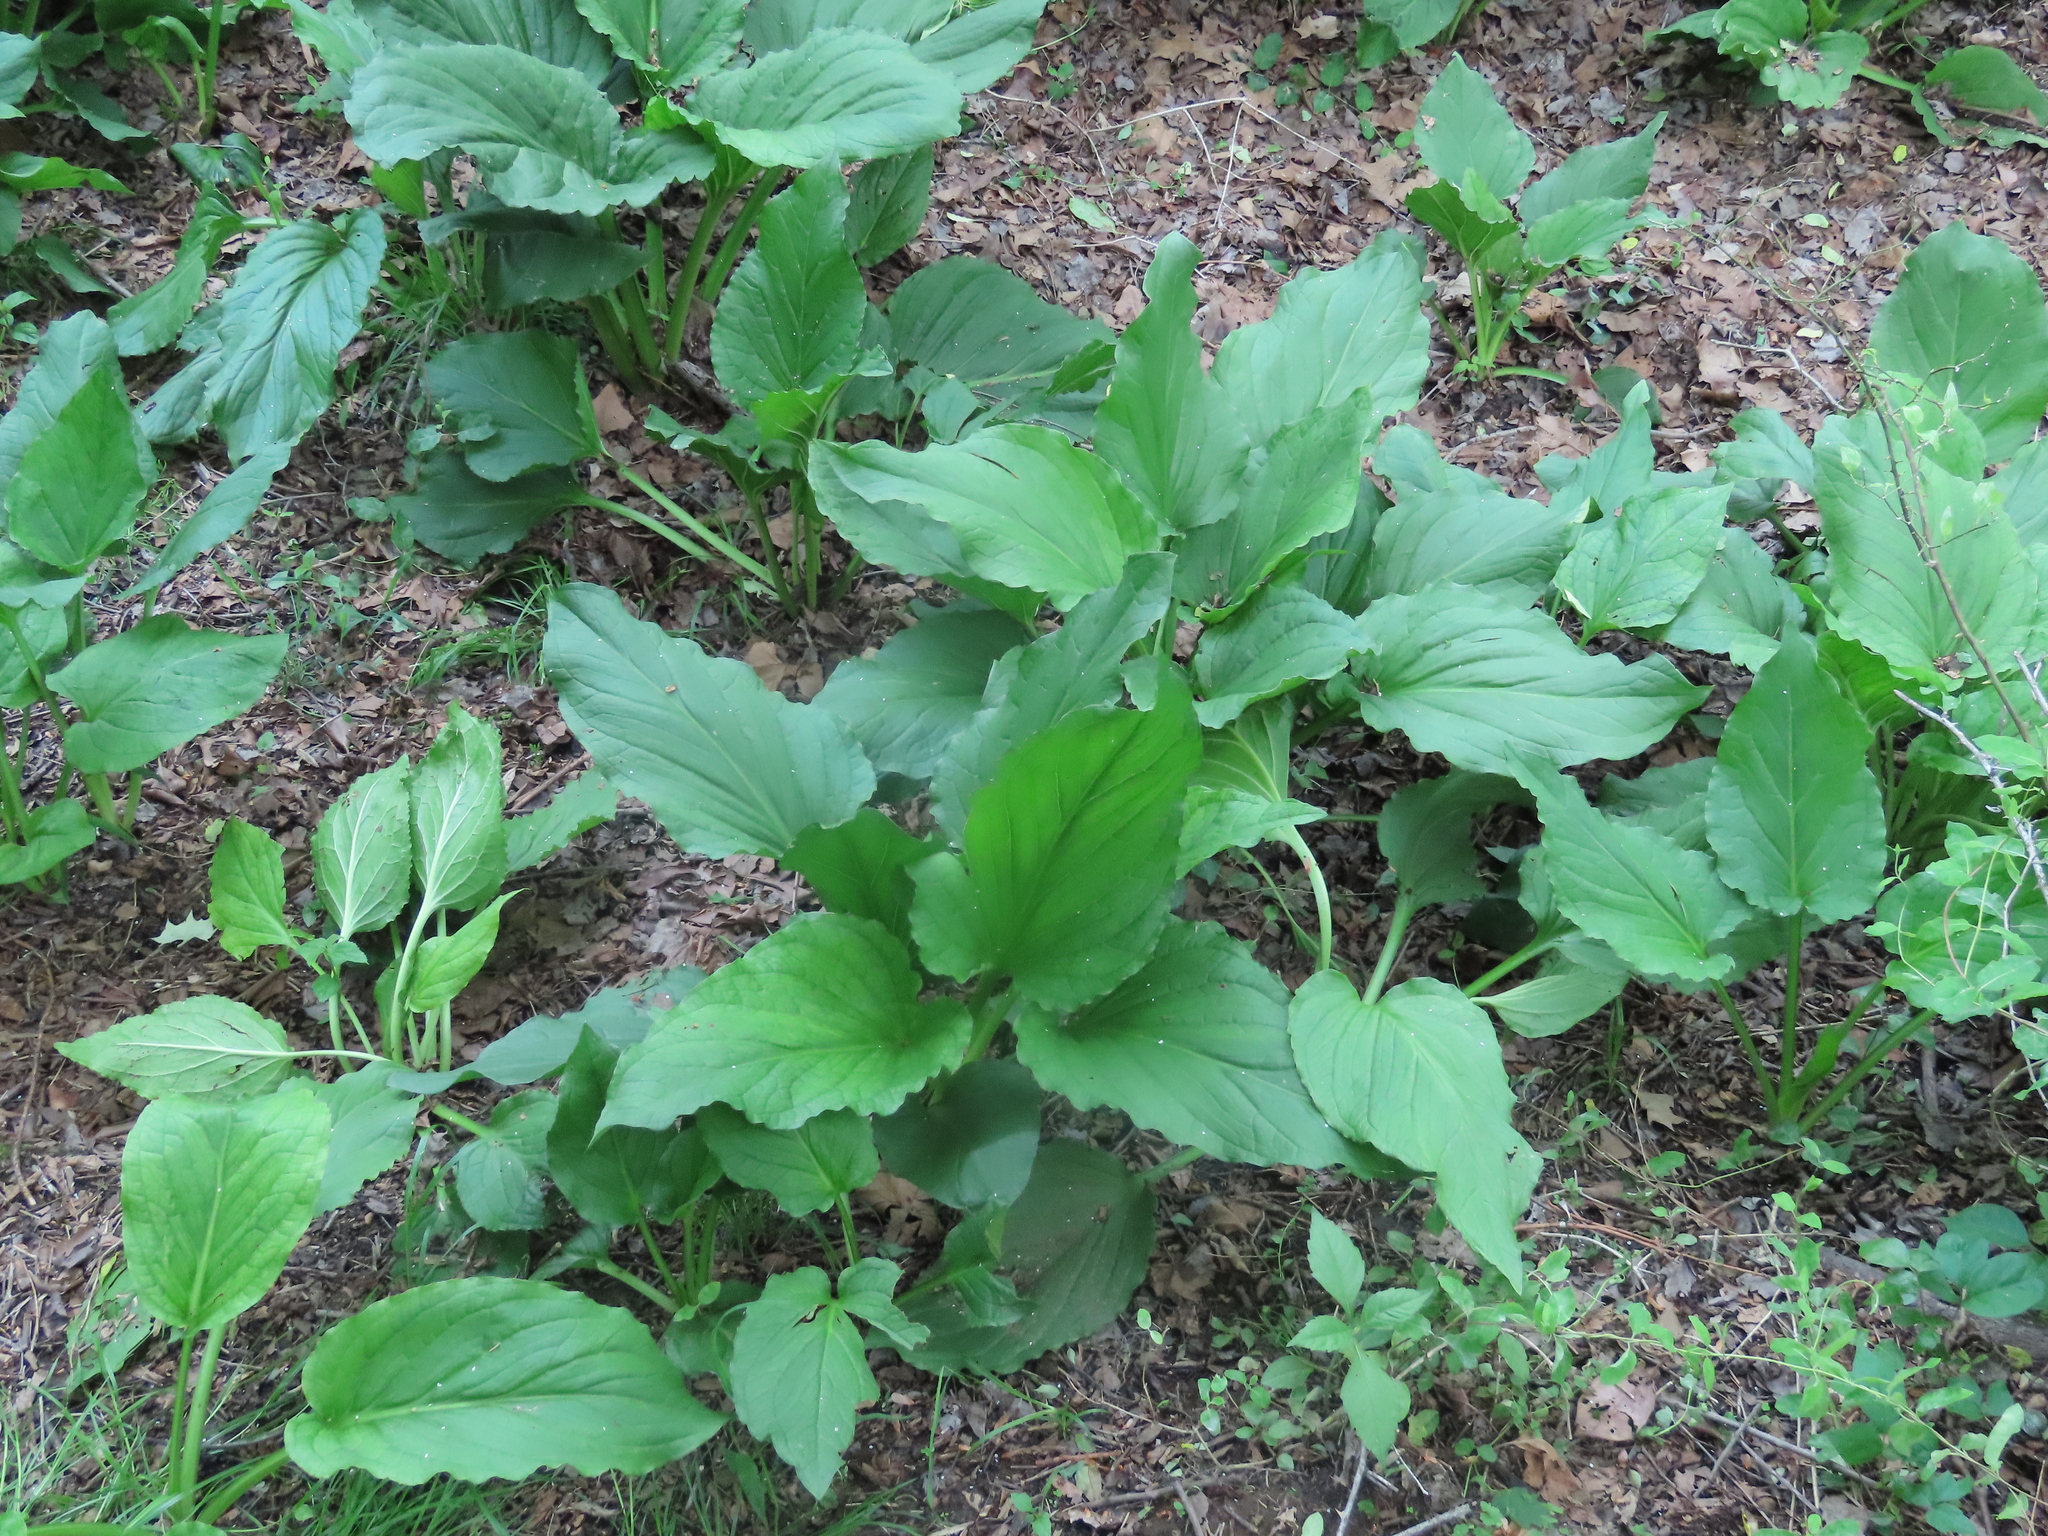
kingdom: Plantae
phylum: Tracheophyta
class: Liliopsida
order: Alismatales
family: Araceae
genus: Symplocarpus
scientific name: Symplocarpus foetidus
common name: Eastern skunk cabbage
